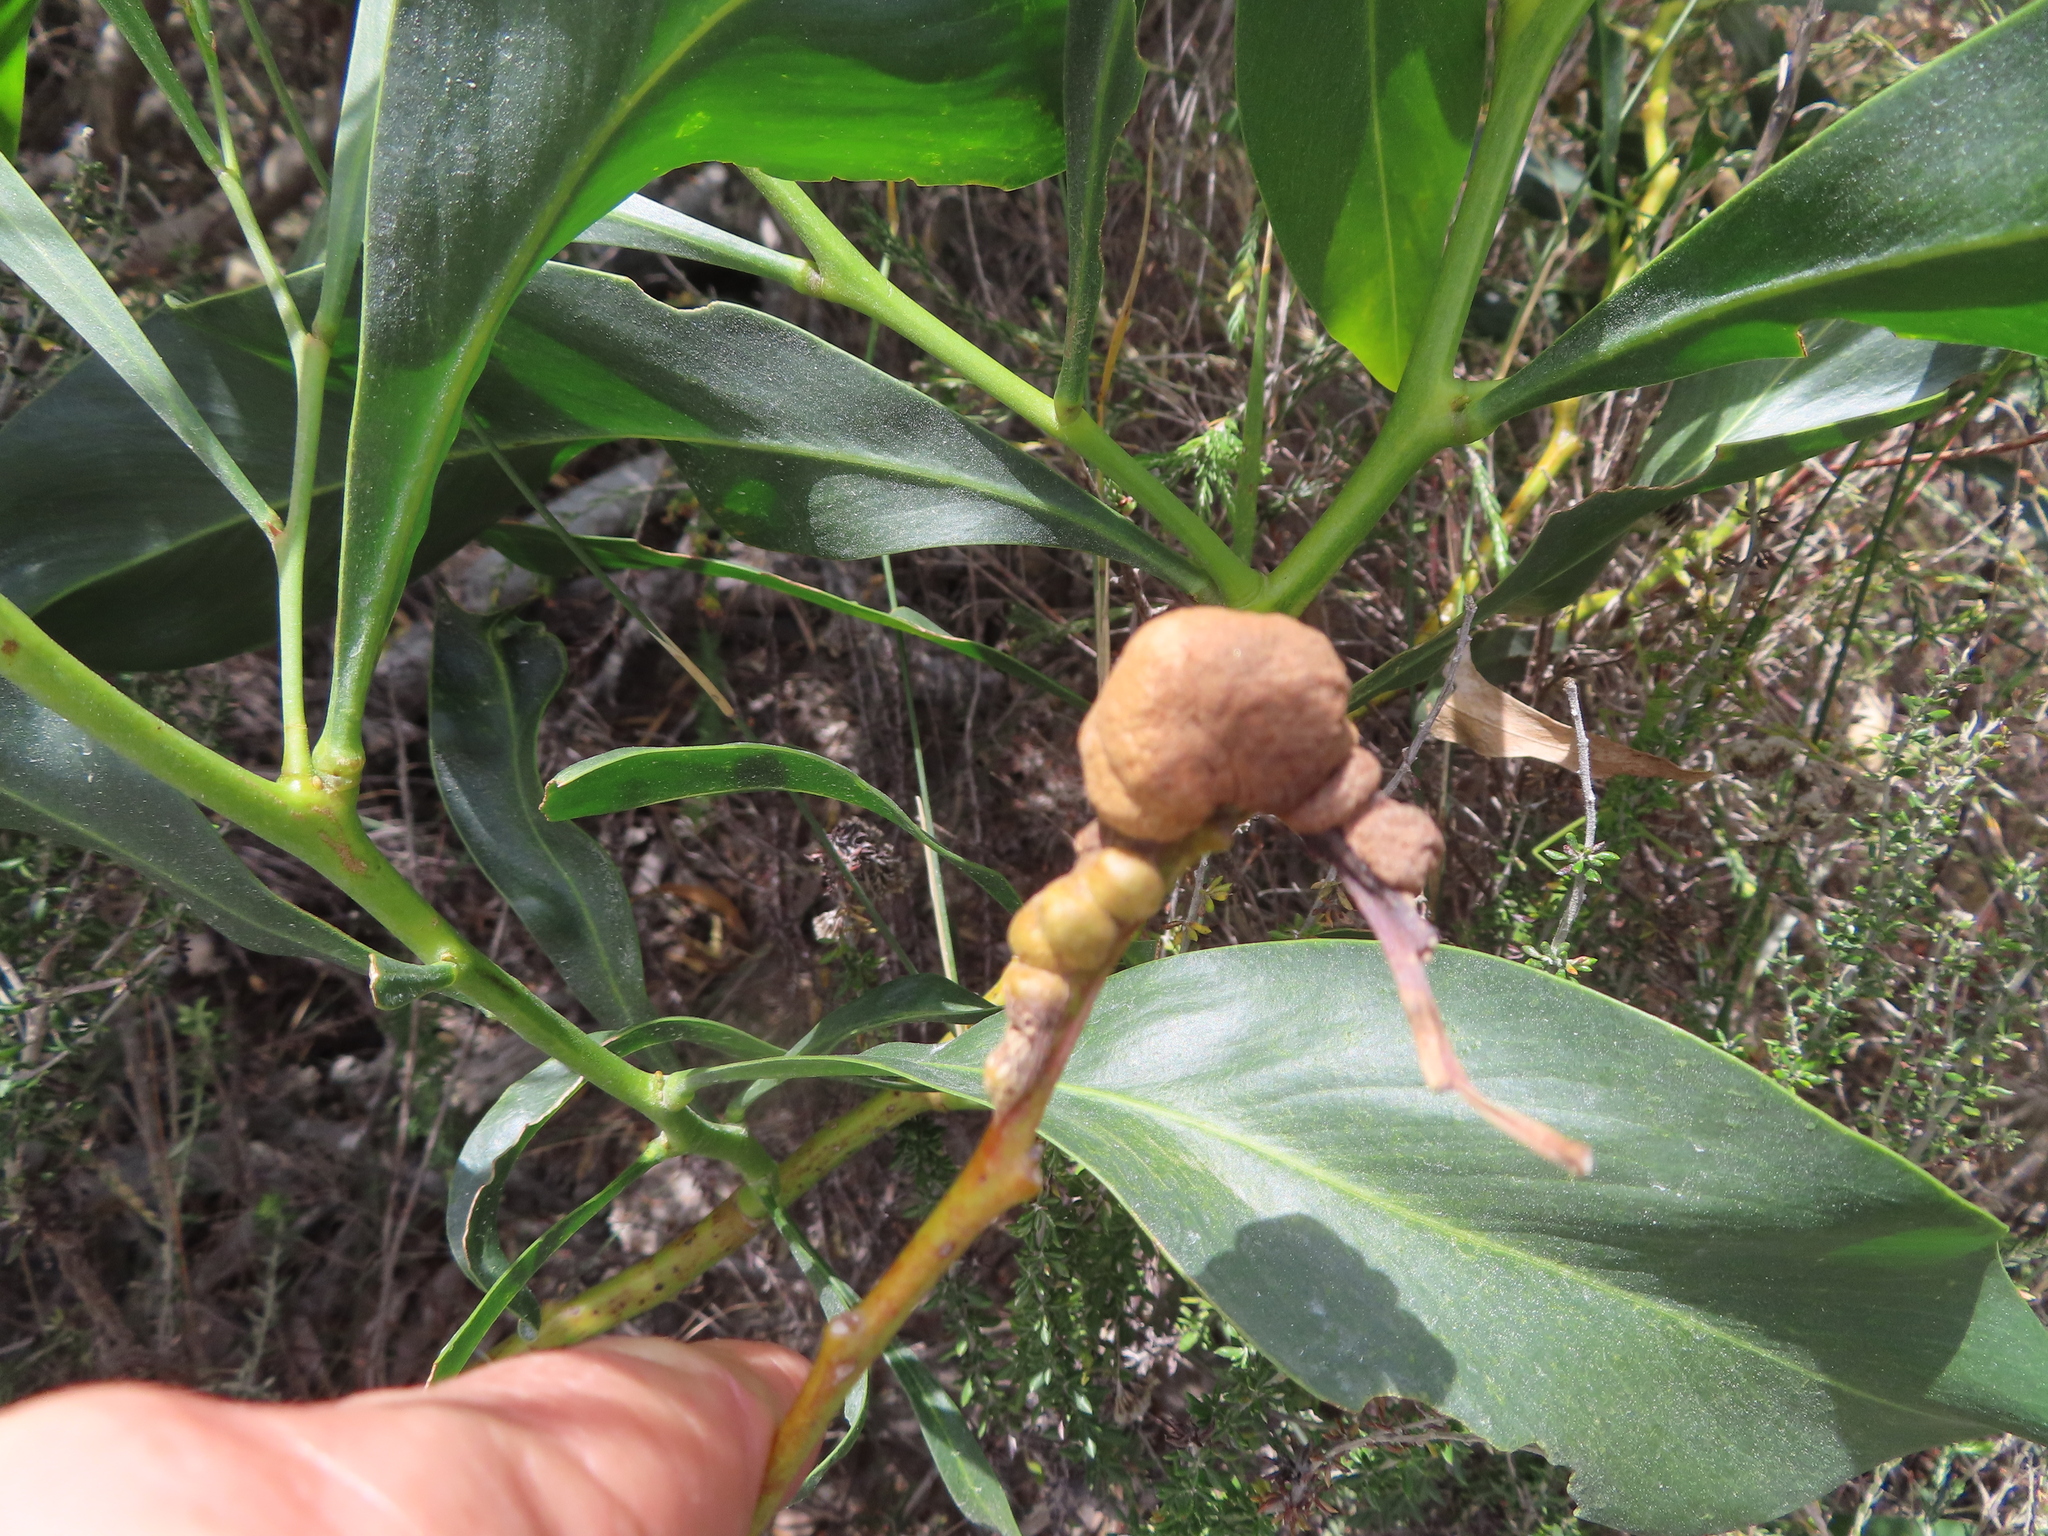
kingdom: Fungi
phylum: Basidiomycota
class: Pucciniomycetes
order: Pucciniales
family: Uromycladiaceae
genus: Uromycladium
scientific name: Uromycladium morrisii
